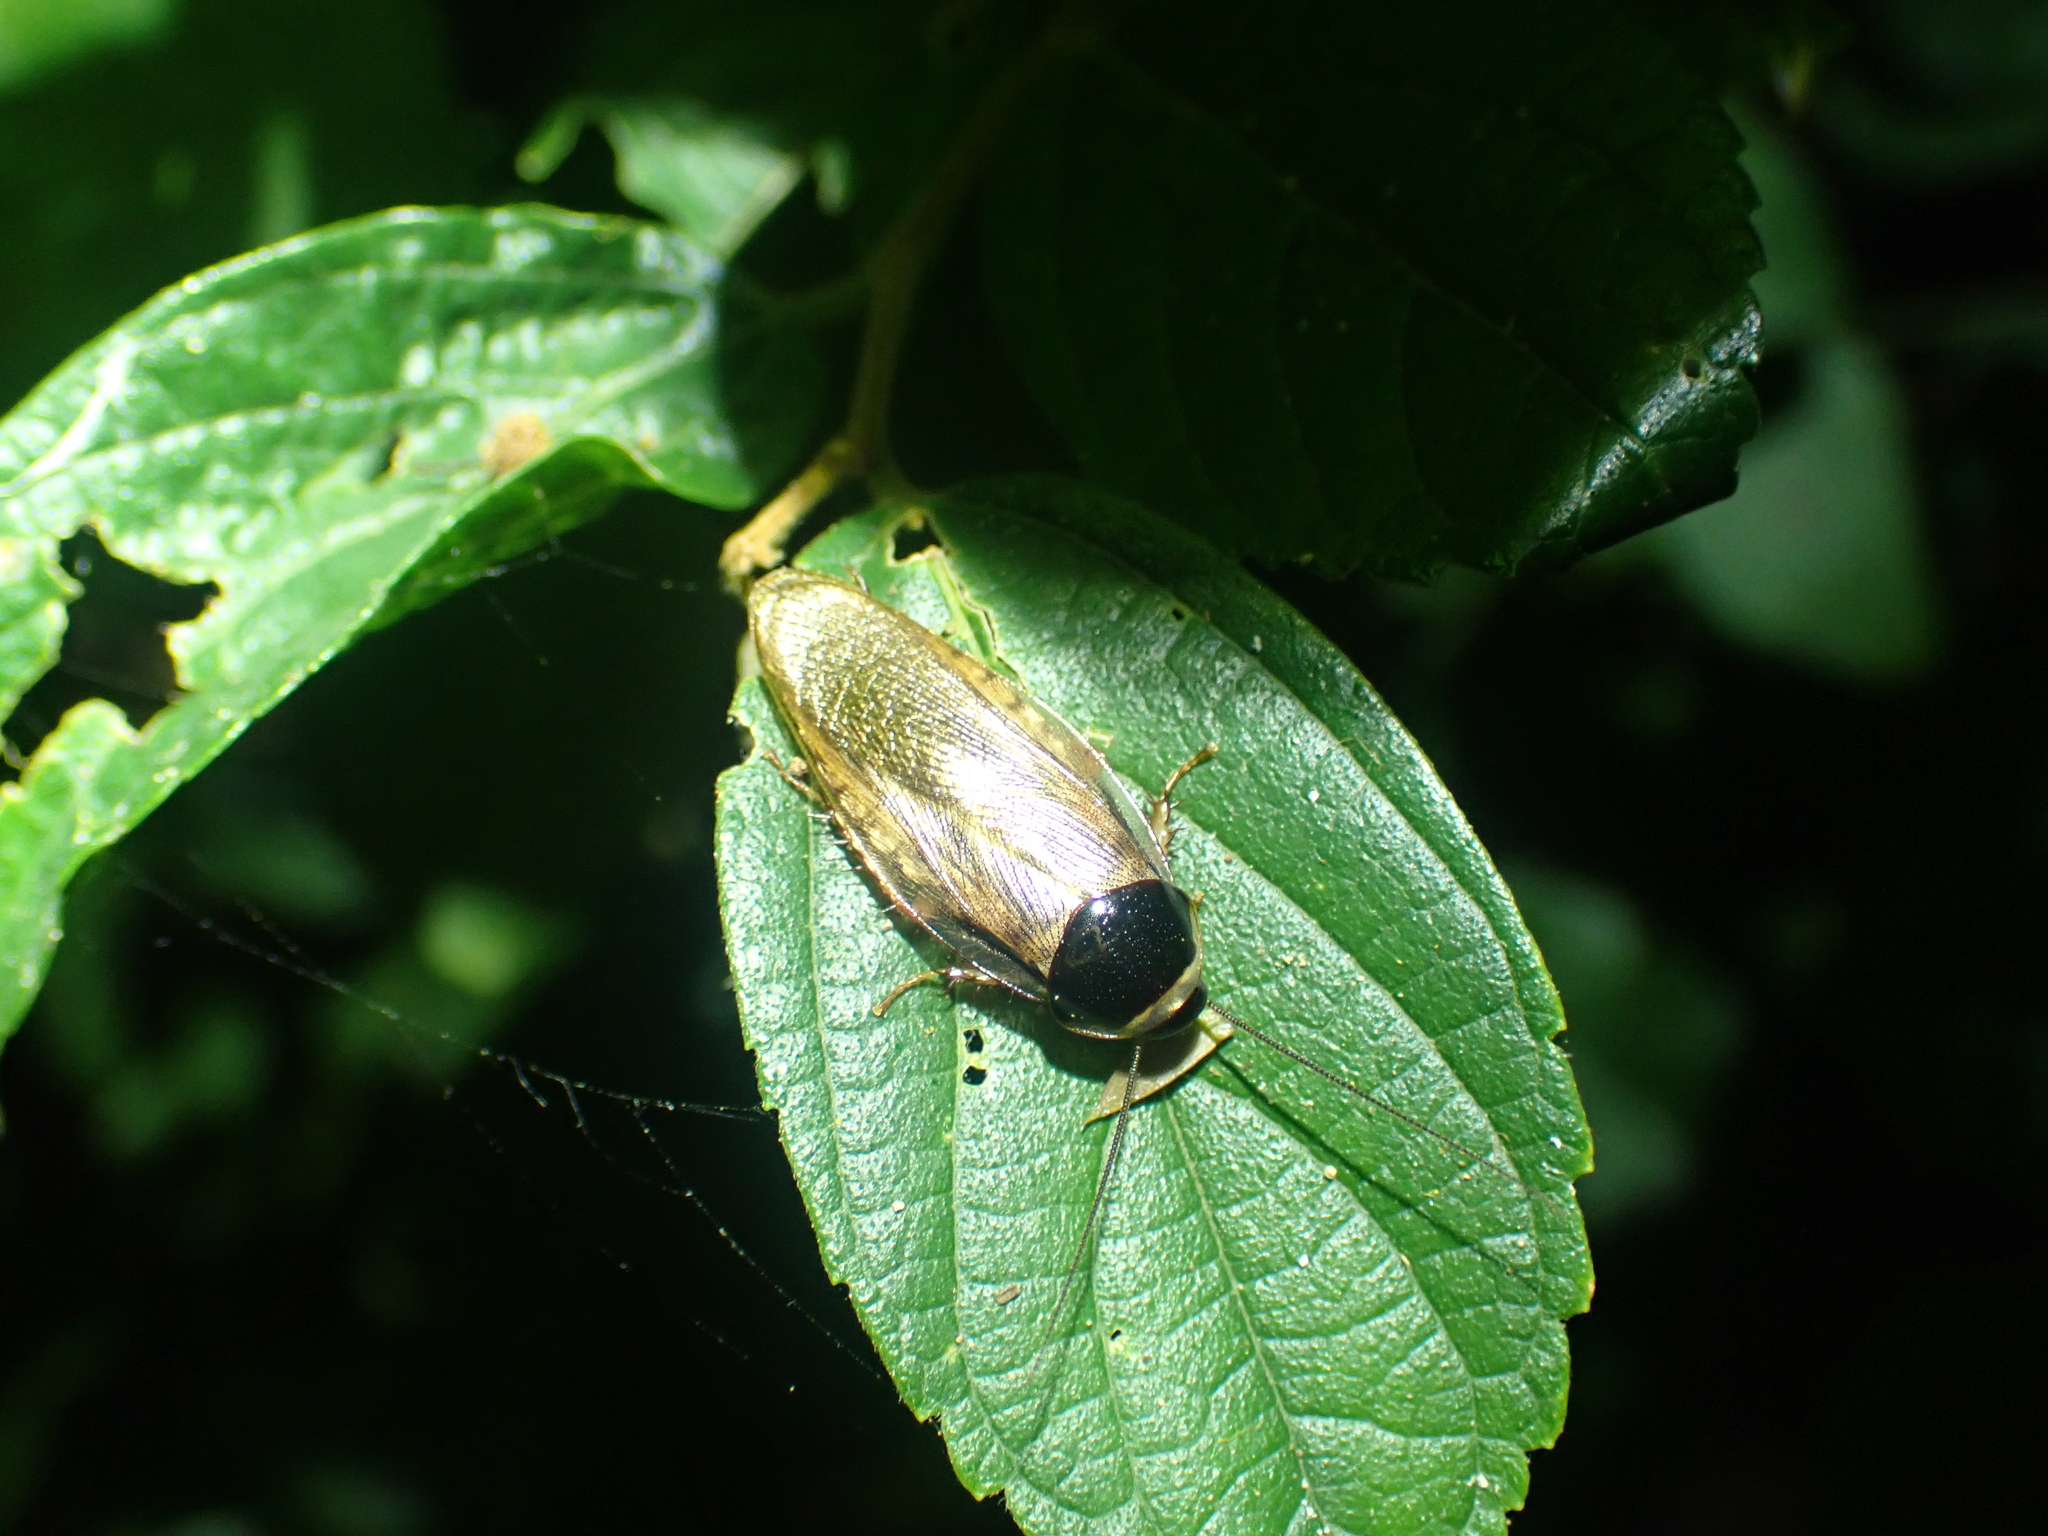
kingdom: Animalia
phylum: Arthropoda
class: Insecta
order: Blattodea
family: Blaberidae
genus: Pycnoscelus
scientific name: Pycnoscelus indicus
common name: Burrowing cockroach
